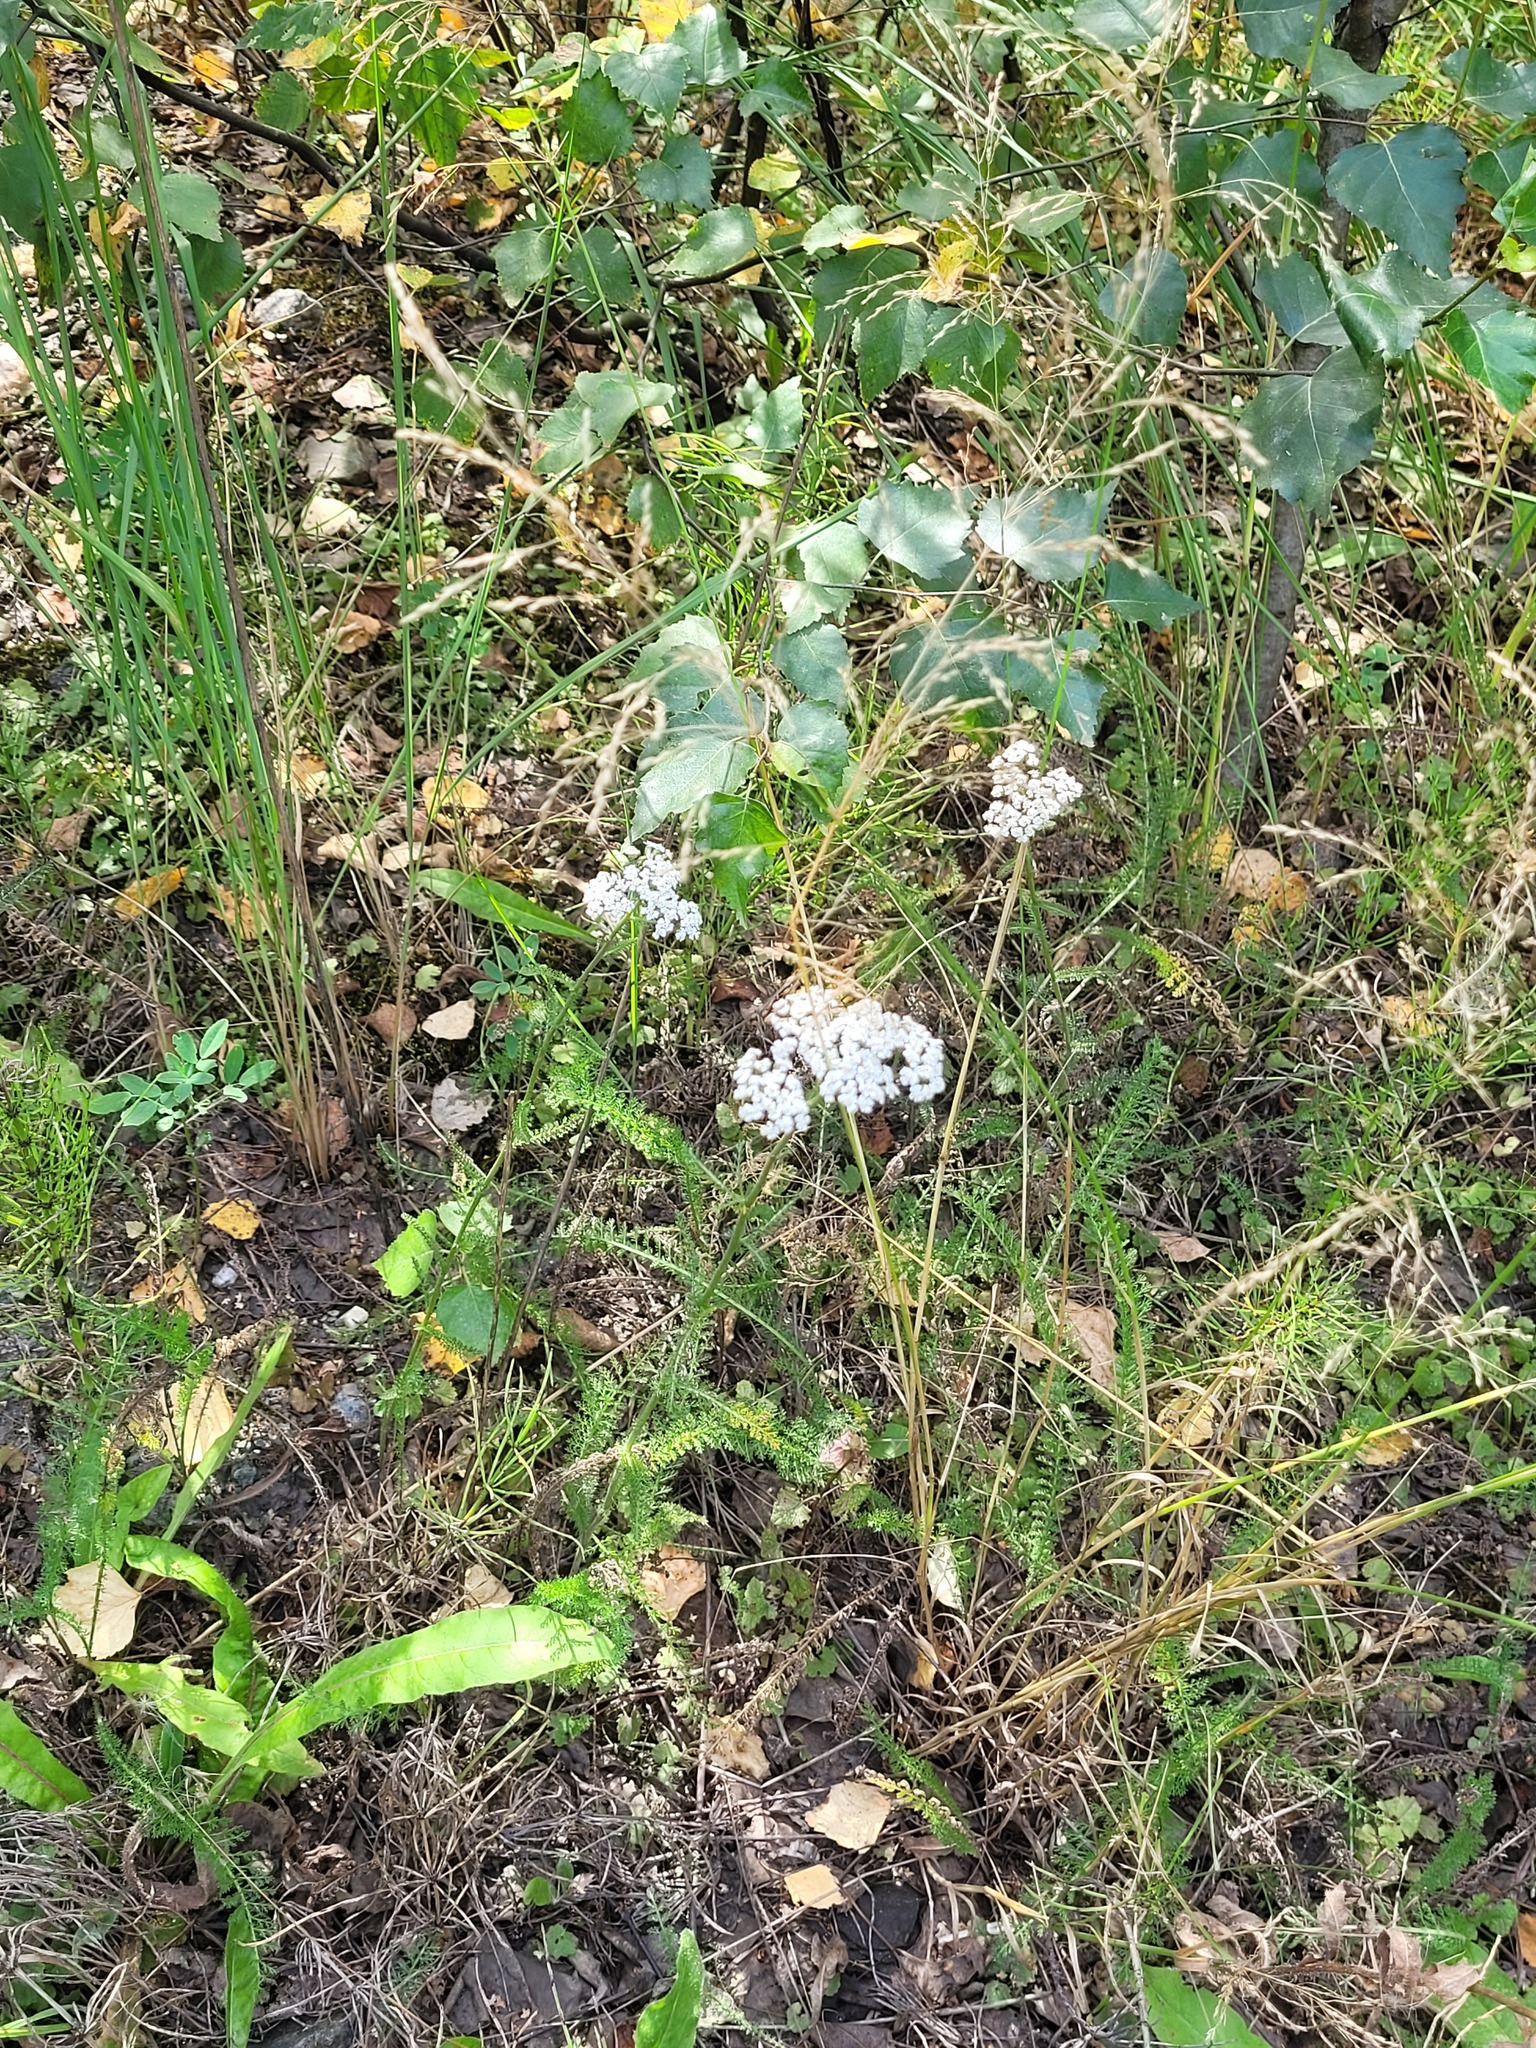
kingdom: Plantae
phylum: Tracheophyta
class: Magnoliopsida
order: Asterales
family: Asteraceae
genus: Achillea
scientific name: Achillea millefolium
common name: Yarrow
